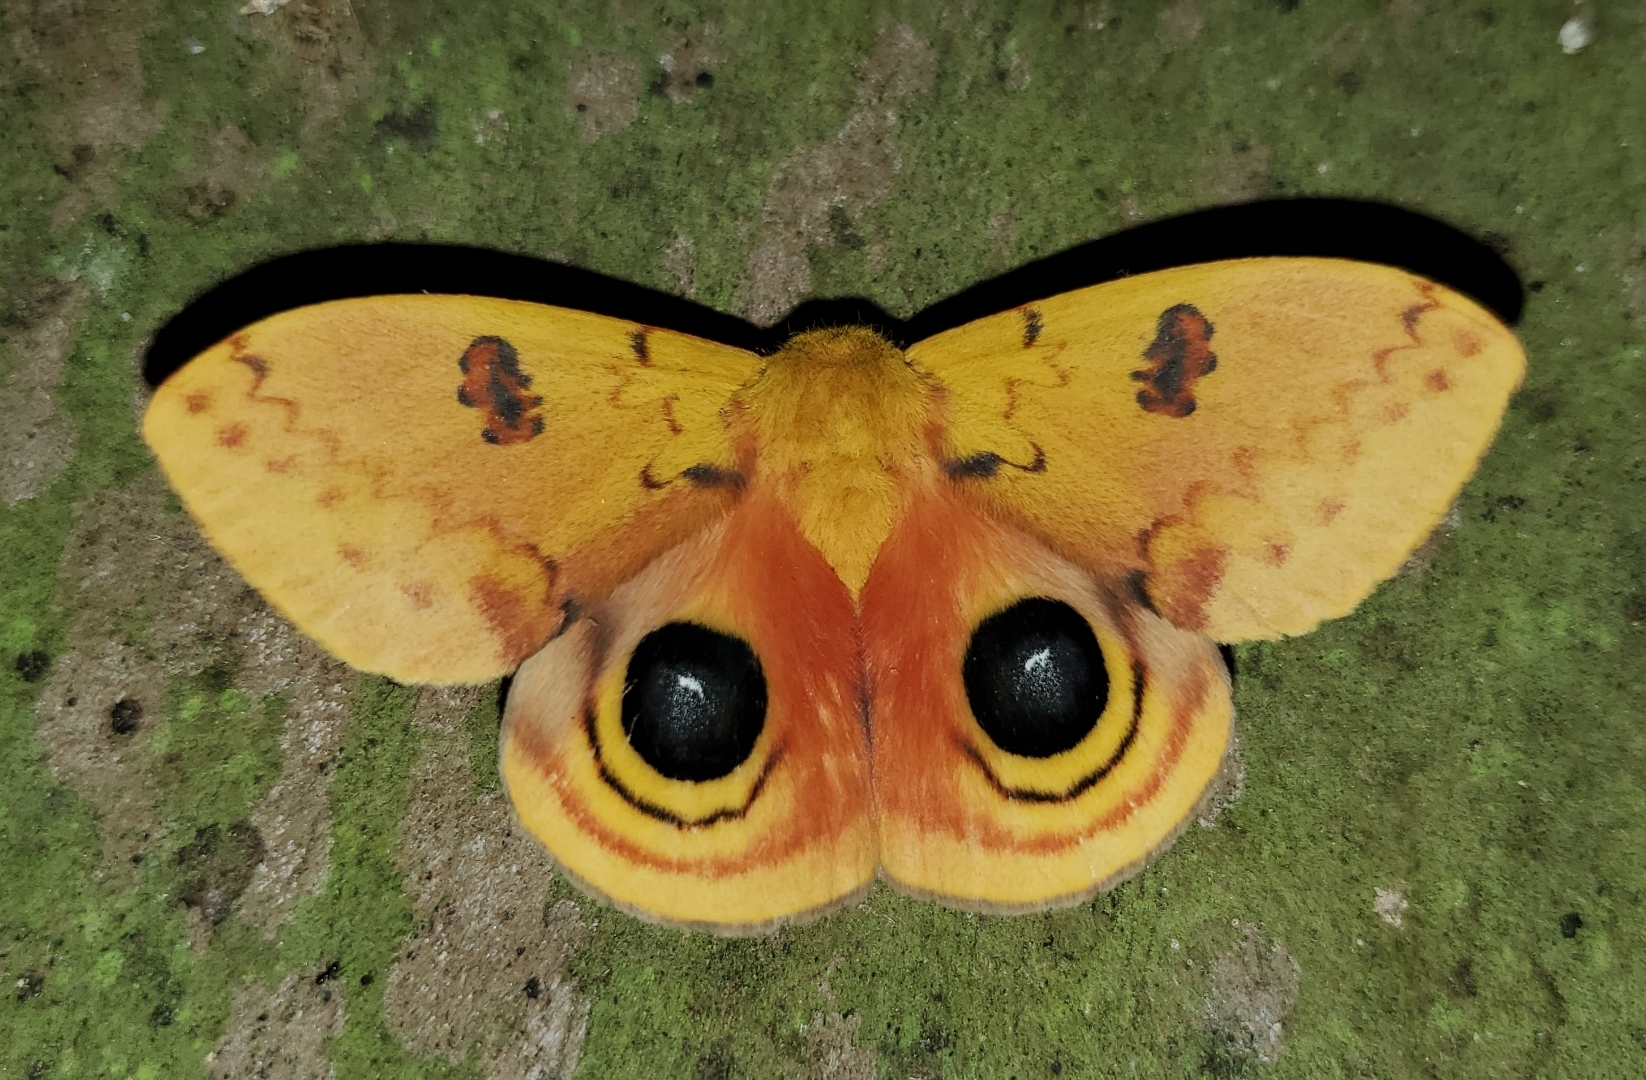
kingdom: Animalia
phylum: Arthropoda
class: Insecta
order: Lepidoptera
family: Saturniidae
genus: Automeris
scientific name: Automeris io
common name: Io moth
